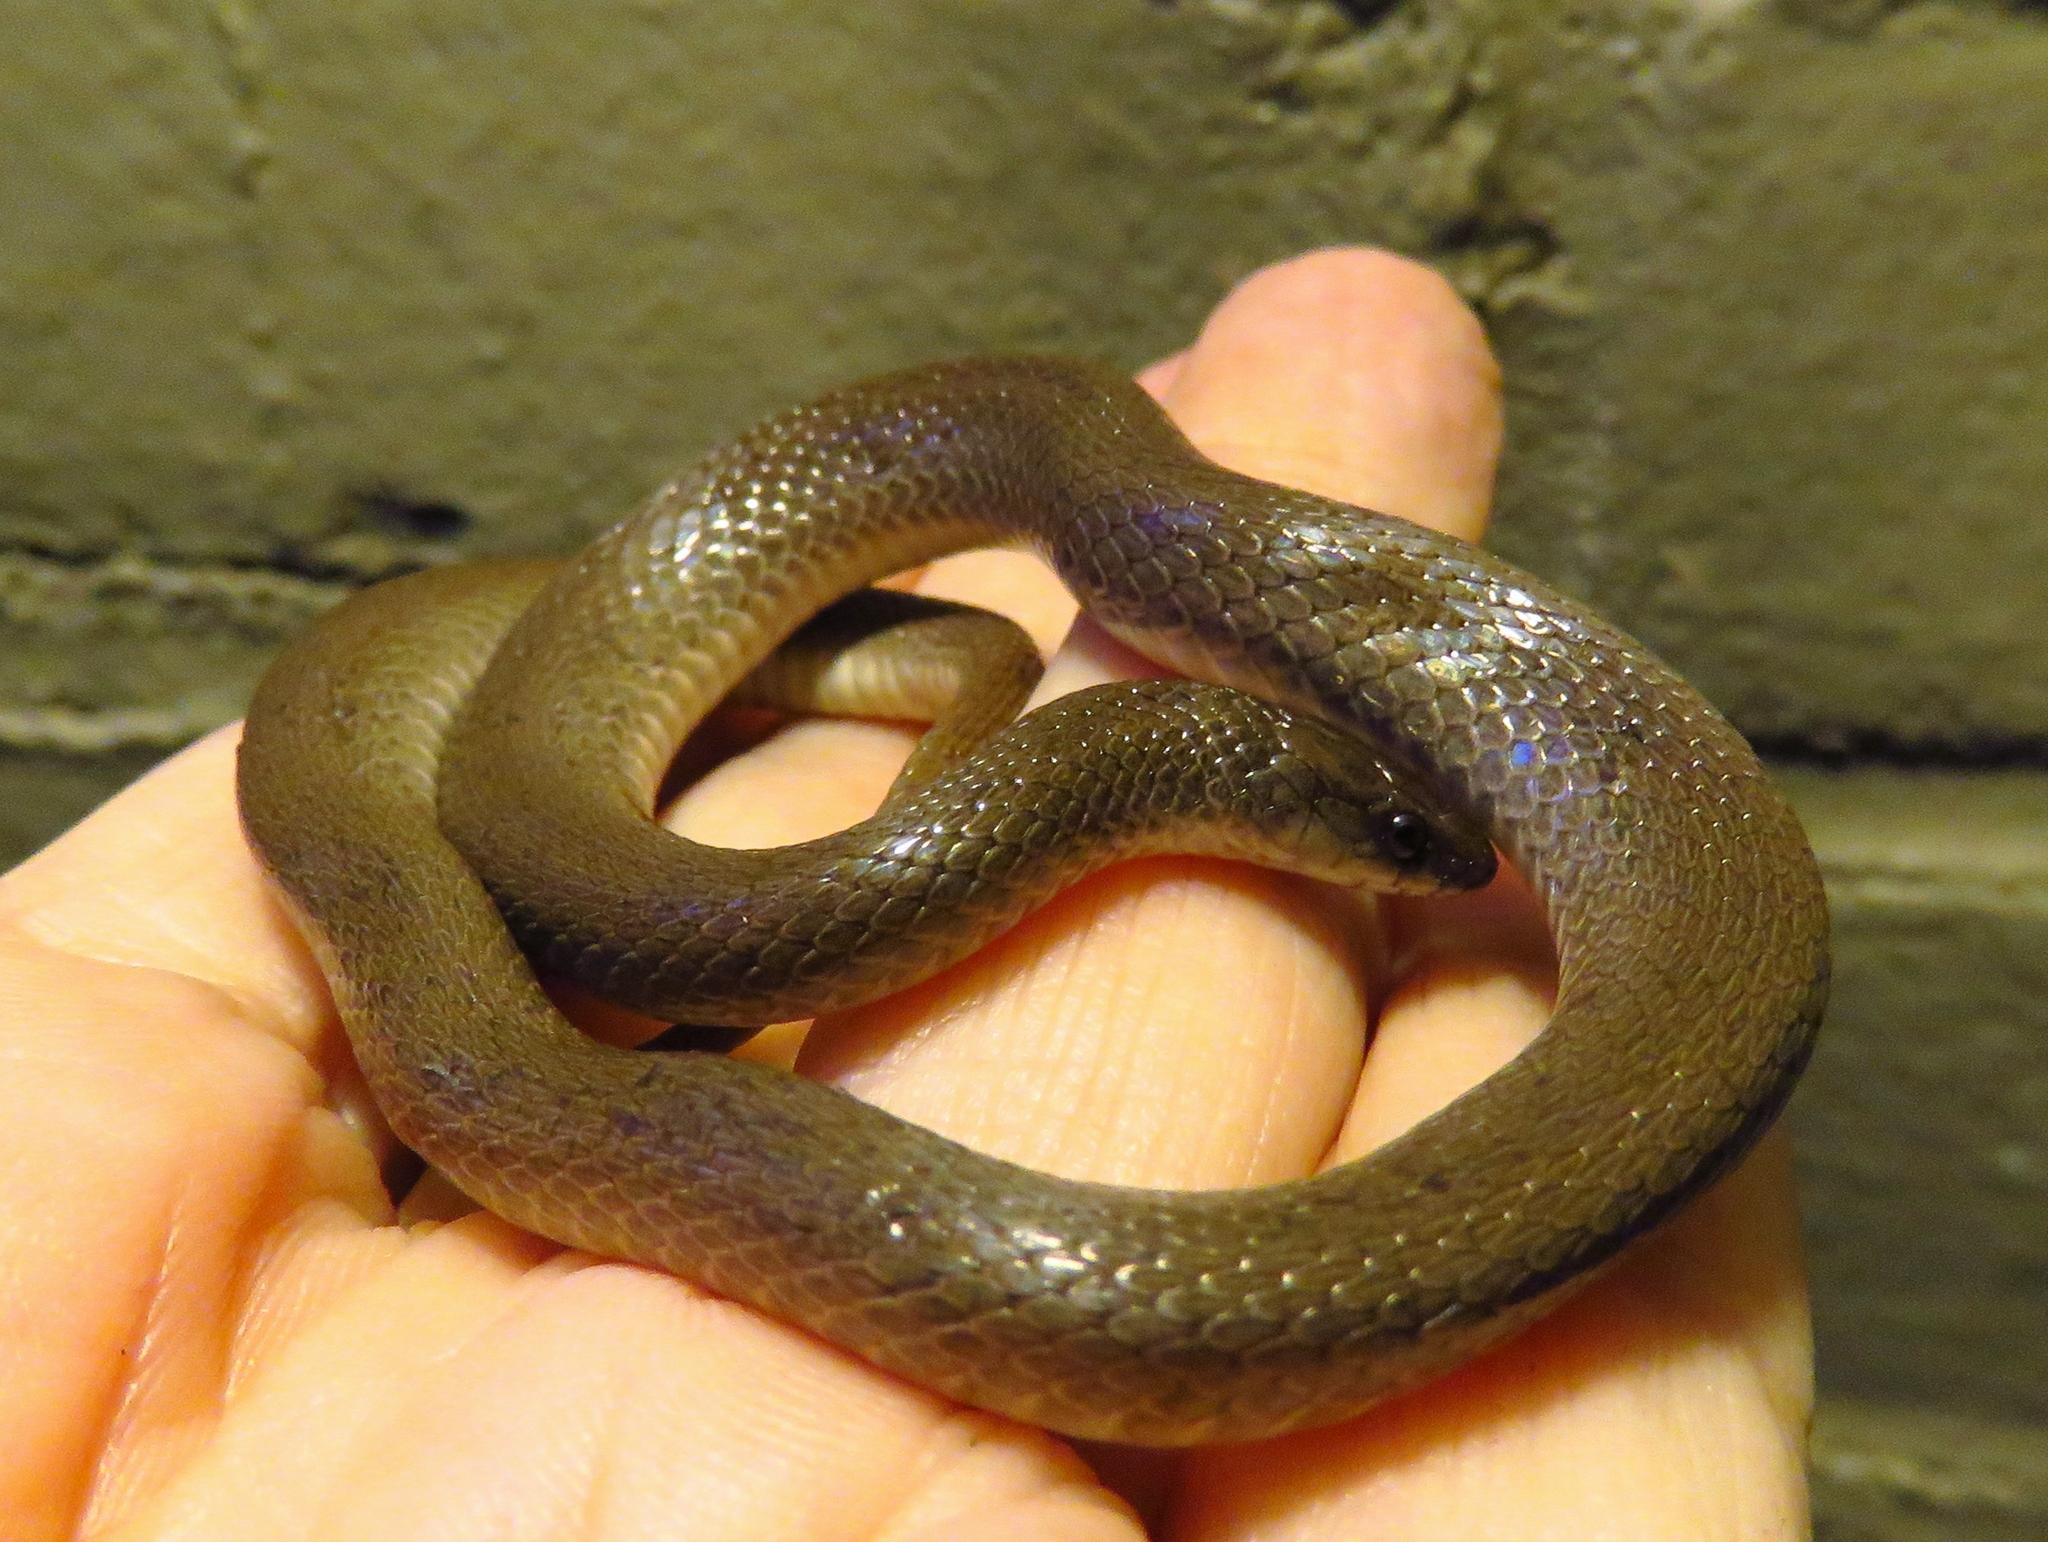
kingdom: Animalia
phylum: Chordata
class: Squamata
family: Colubridae
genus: Haldea
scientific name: Haldea striatula
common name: Rough earth snake
